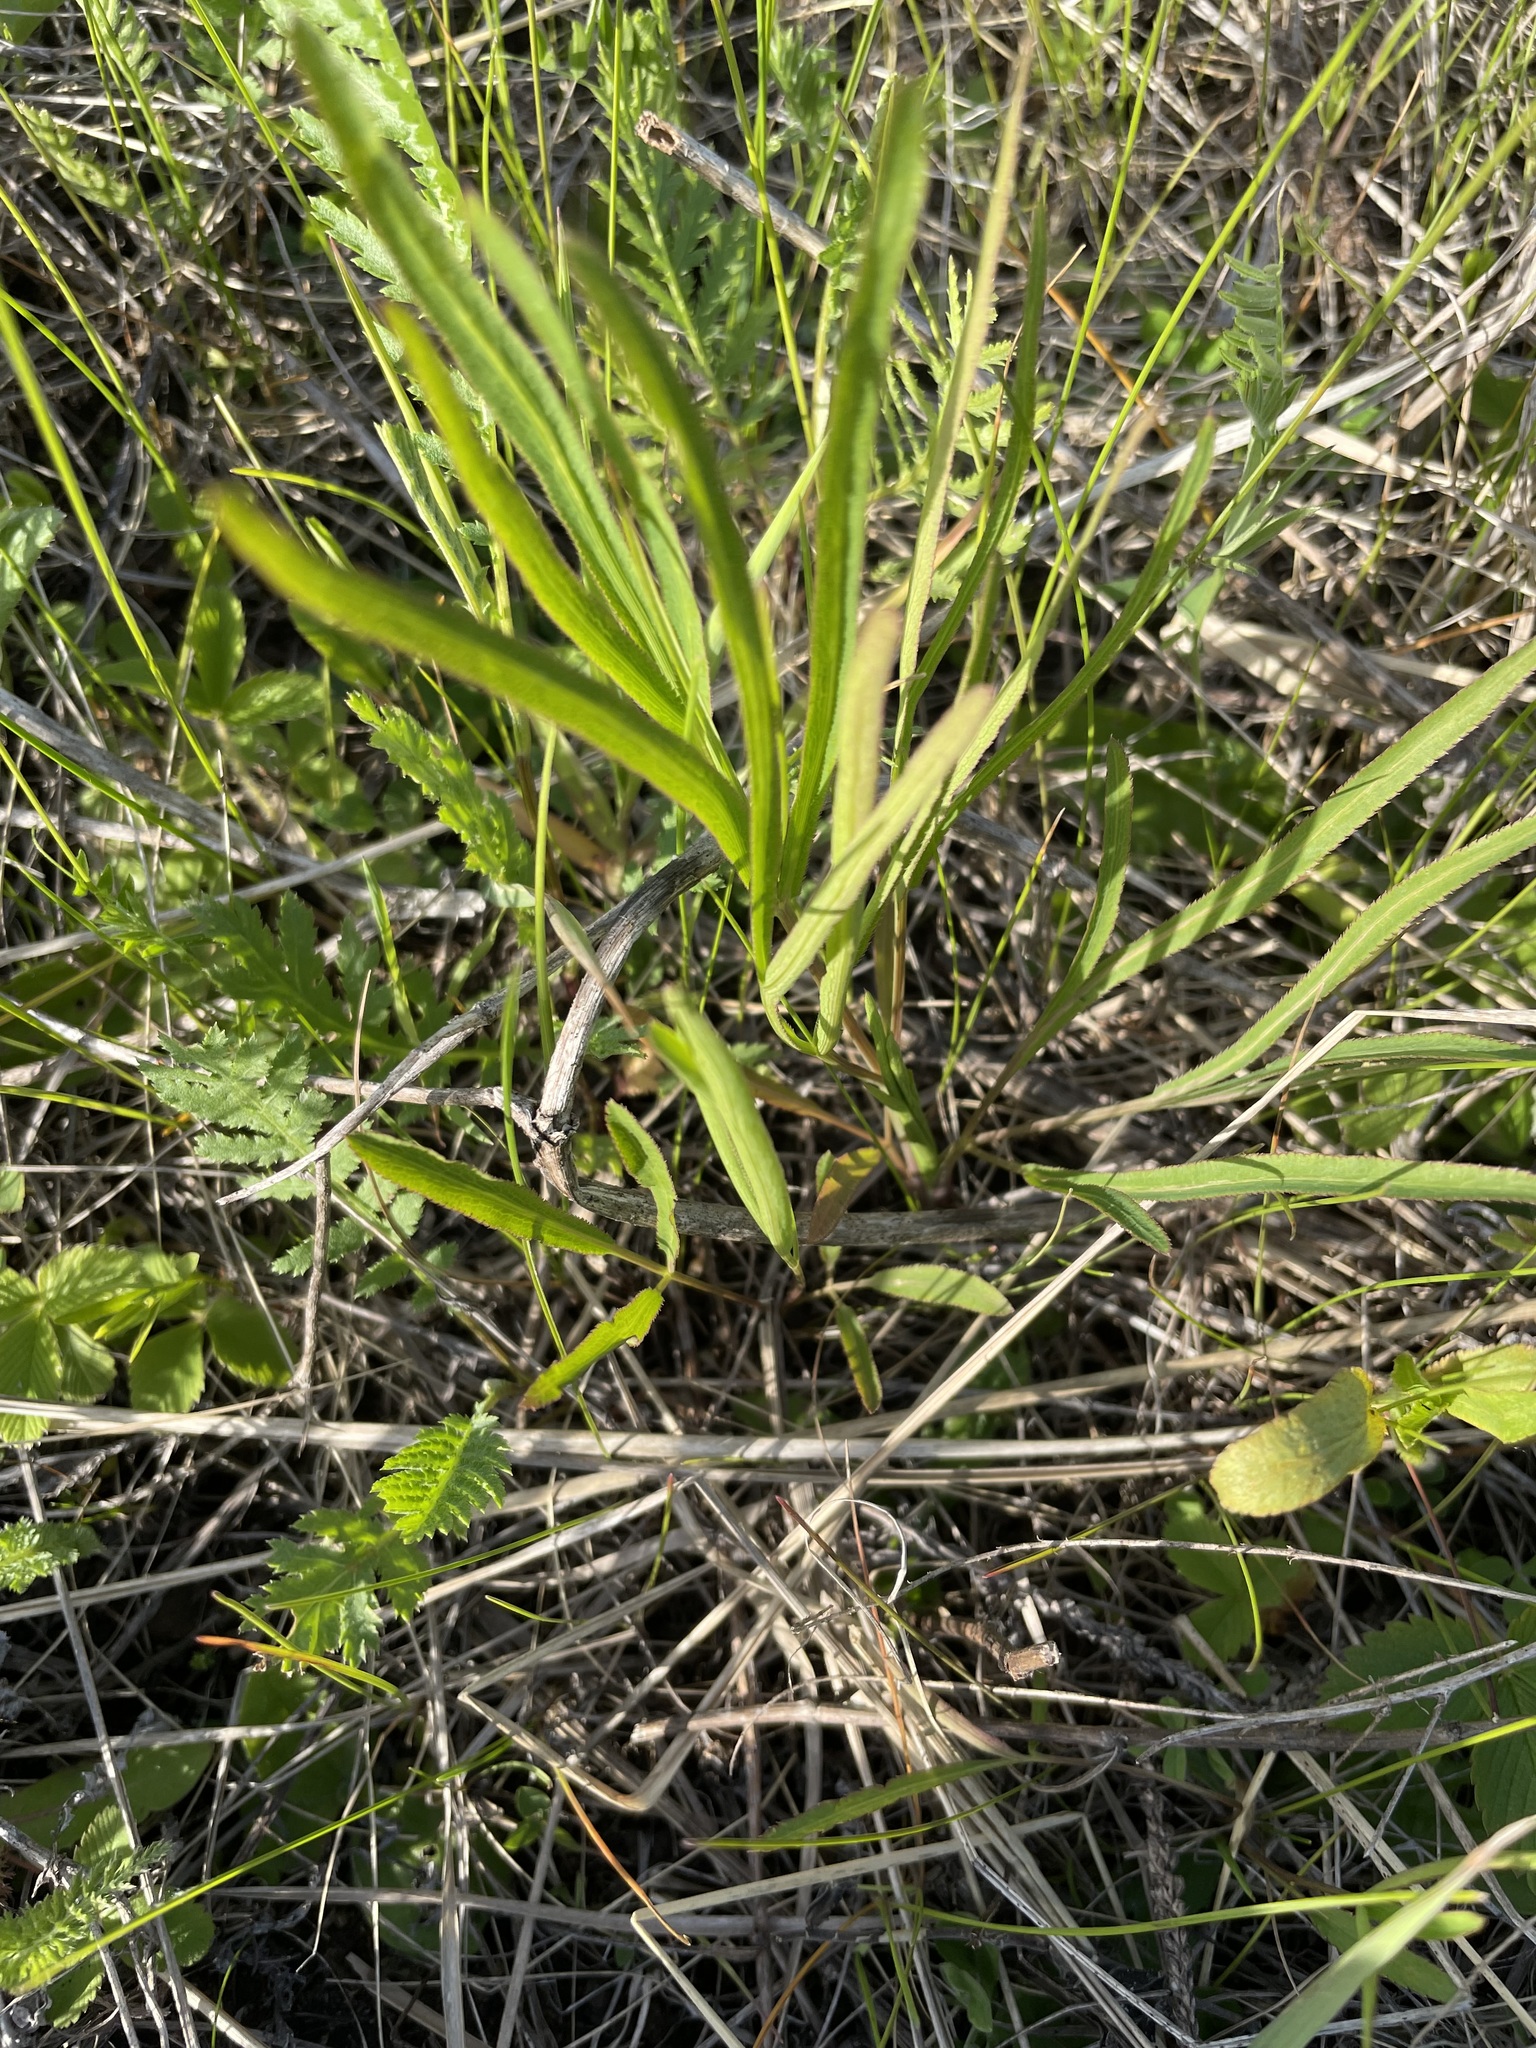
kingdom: Plantae
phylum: Tracheophyta
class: Magnoliopsida
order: Apiales
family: Apiaceae
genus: Falcaria
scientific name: Falcaria vulgaris
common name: Longleaf
